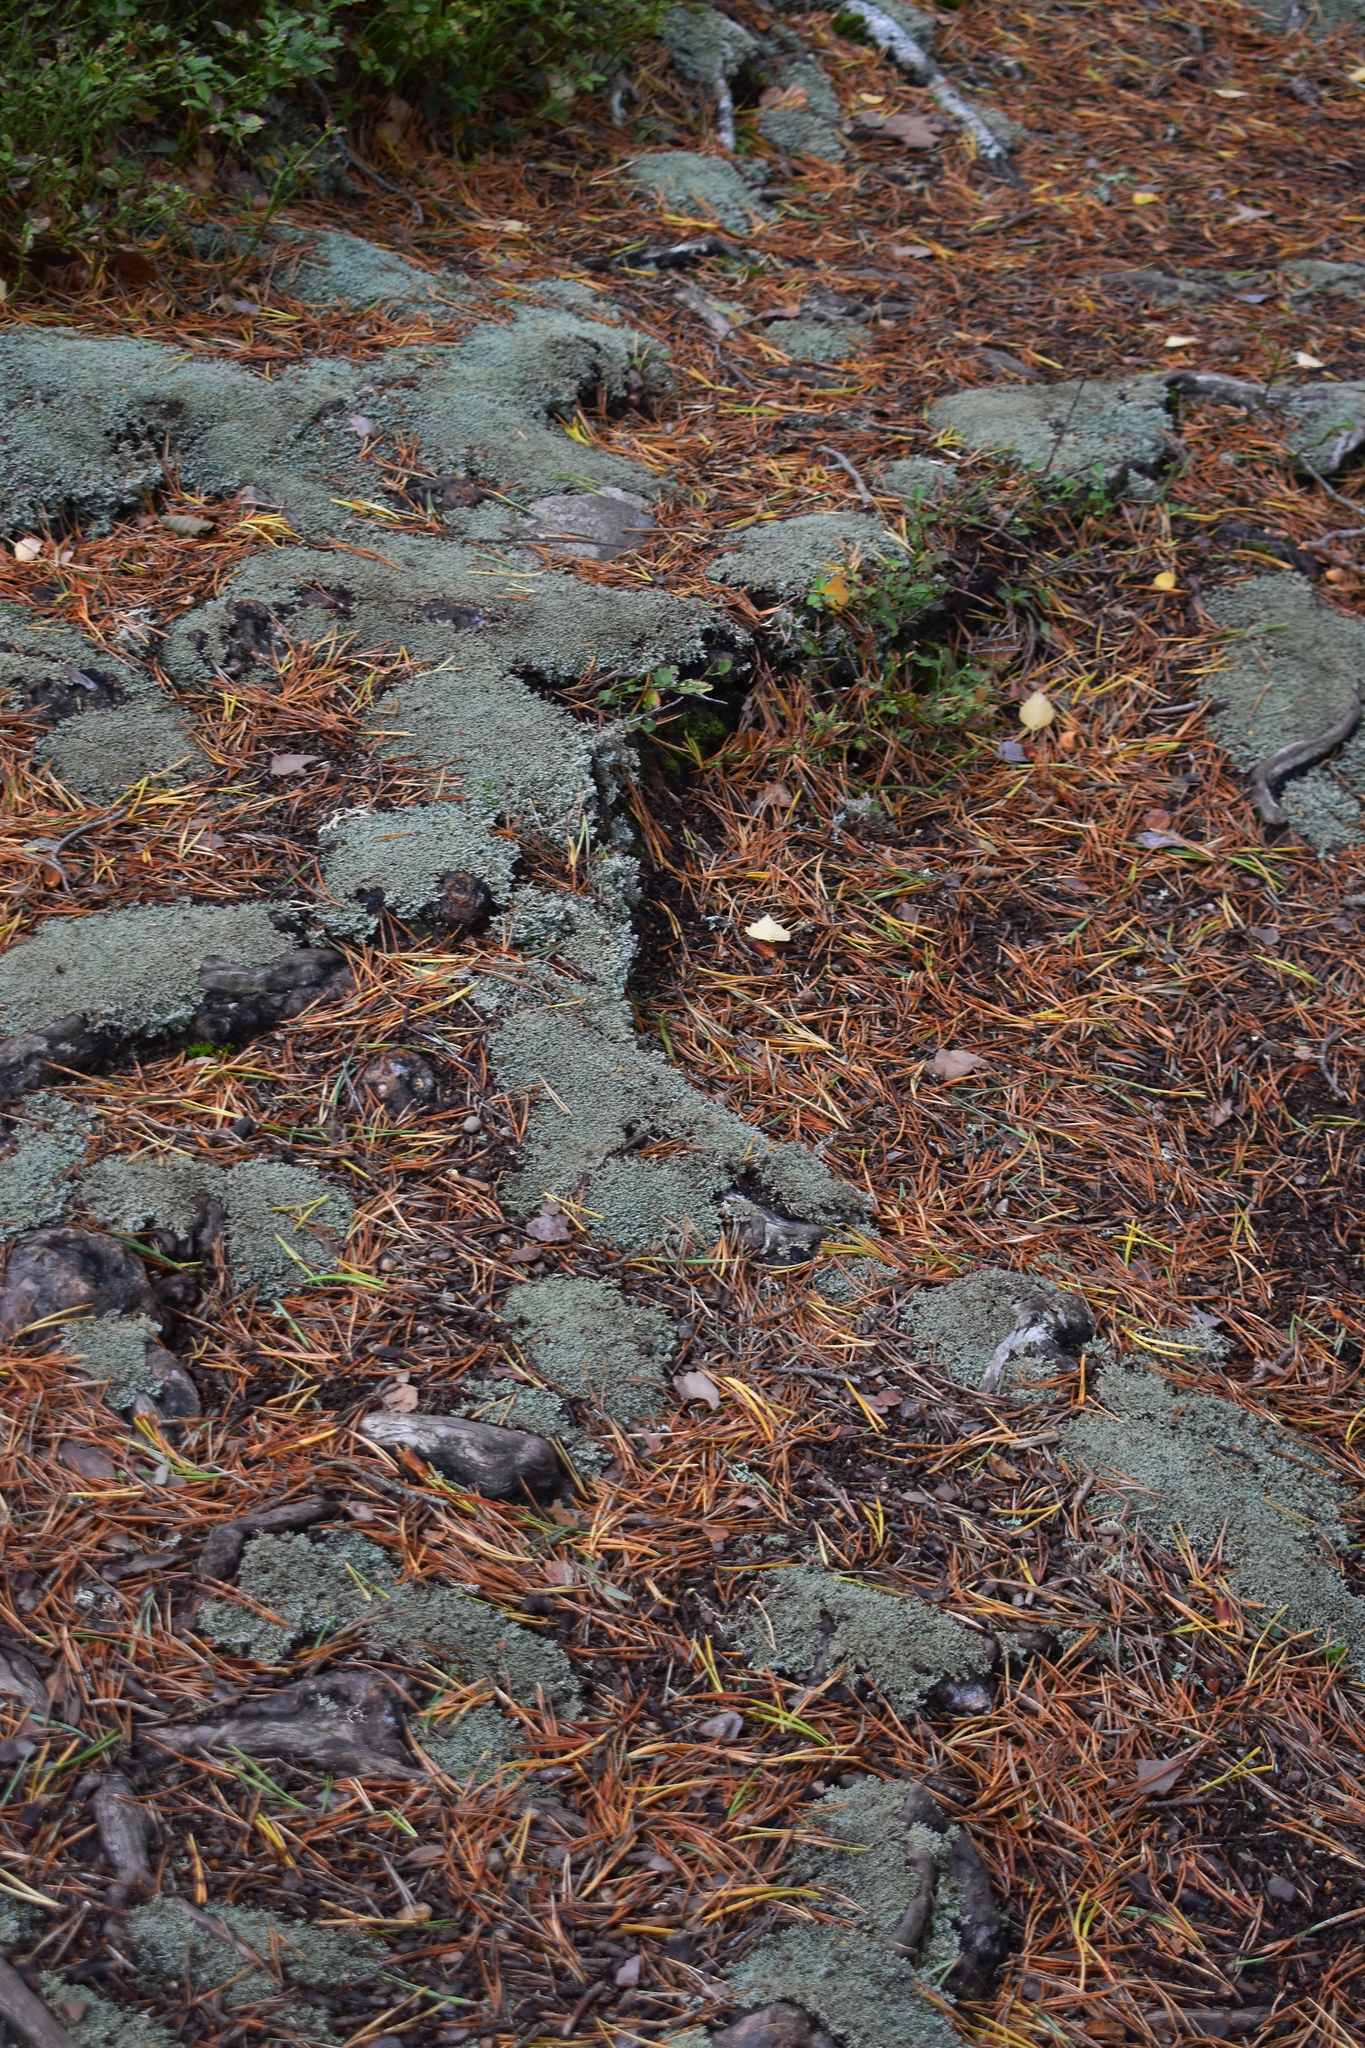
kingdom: Fungi
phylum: Ascomycota
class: Lecanoromycetes
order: Lecanorales
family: Sphaerophoraceae
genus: Sphaerophorus
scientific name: Sphaerophorus globosus
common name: Globe ball lichen
